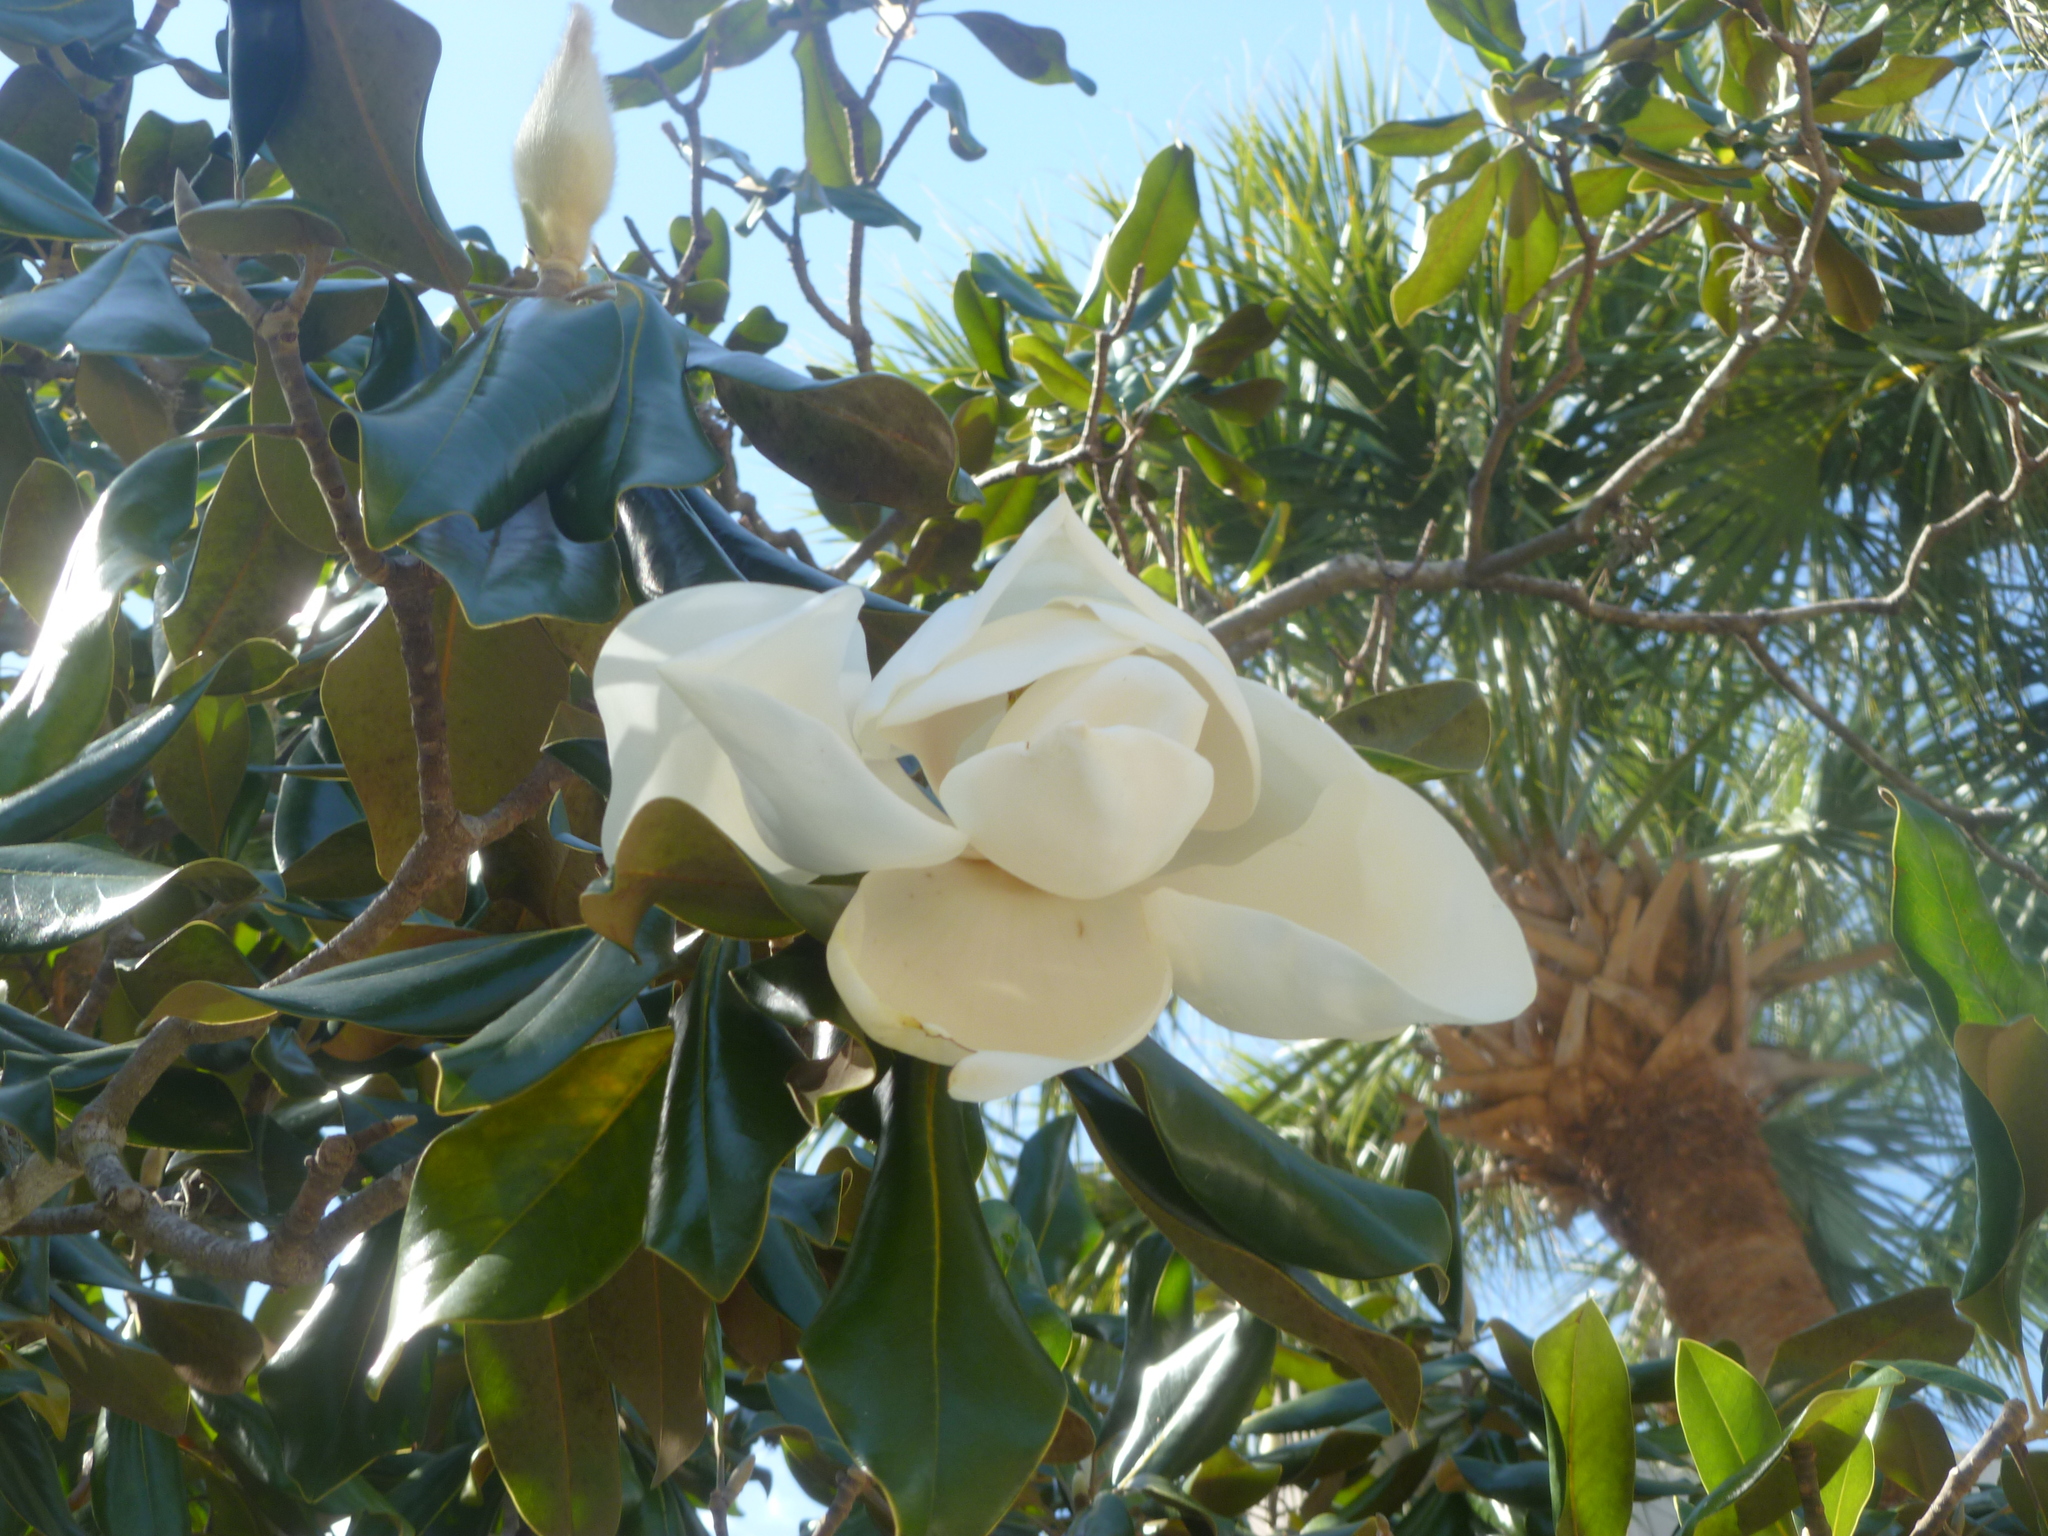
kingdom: Plantae
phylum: Tracheophyta
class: Magnoliopsida
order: Magnoliales
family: Magnoliaceae
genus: Magnolia
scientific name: Magnolia grandiflora
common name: Southern magnolia
